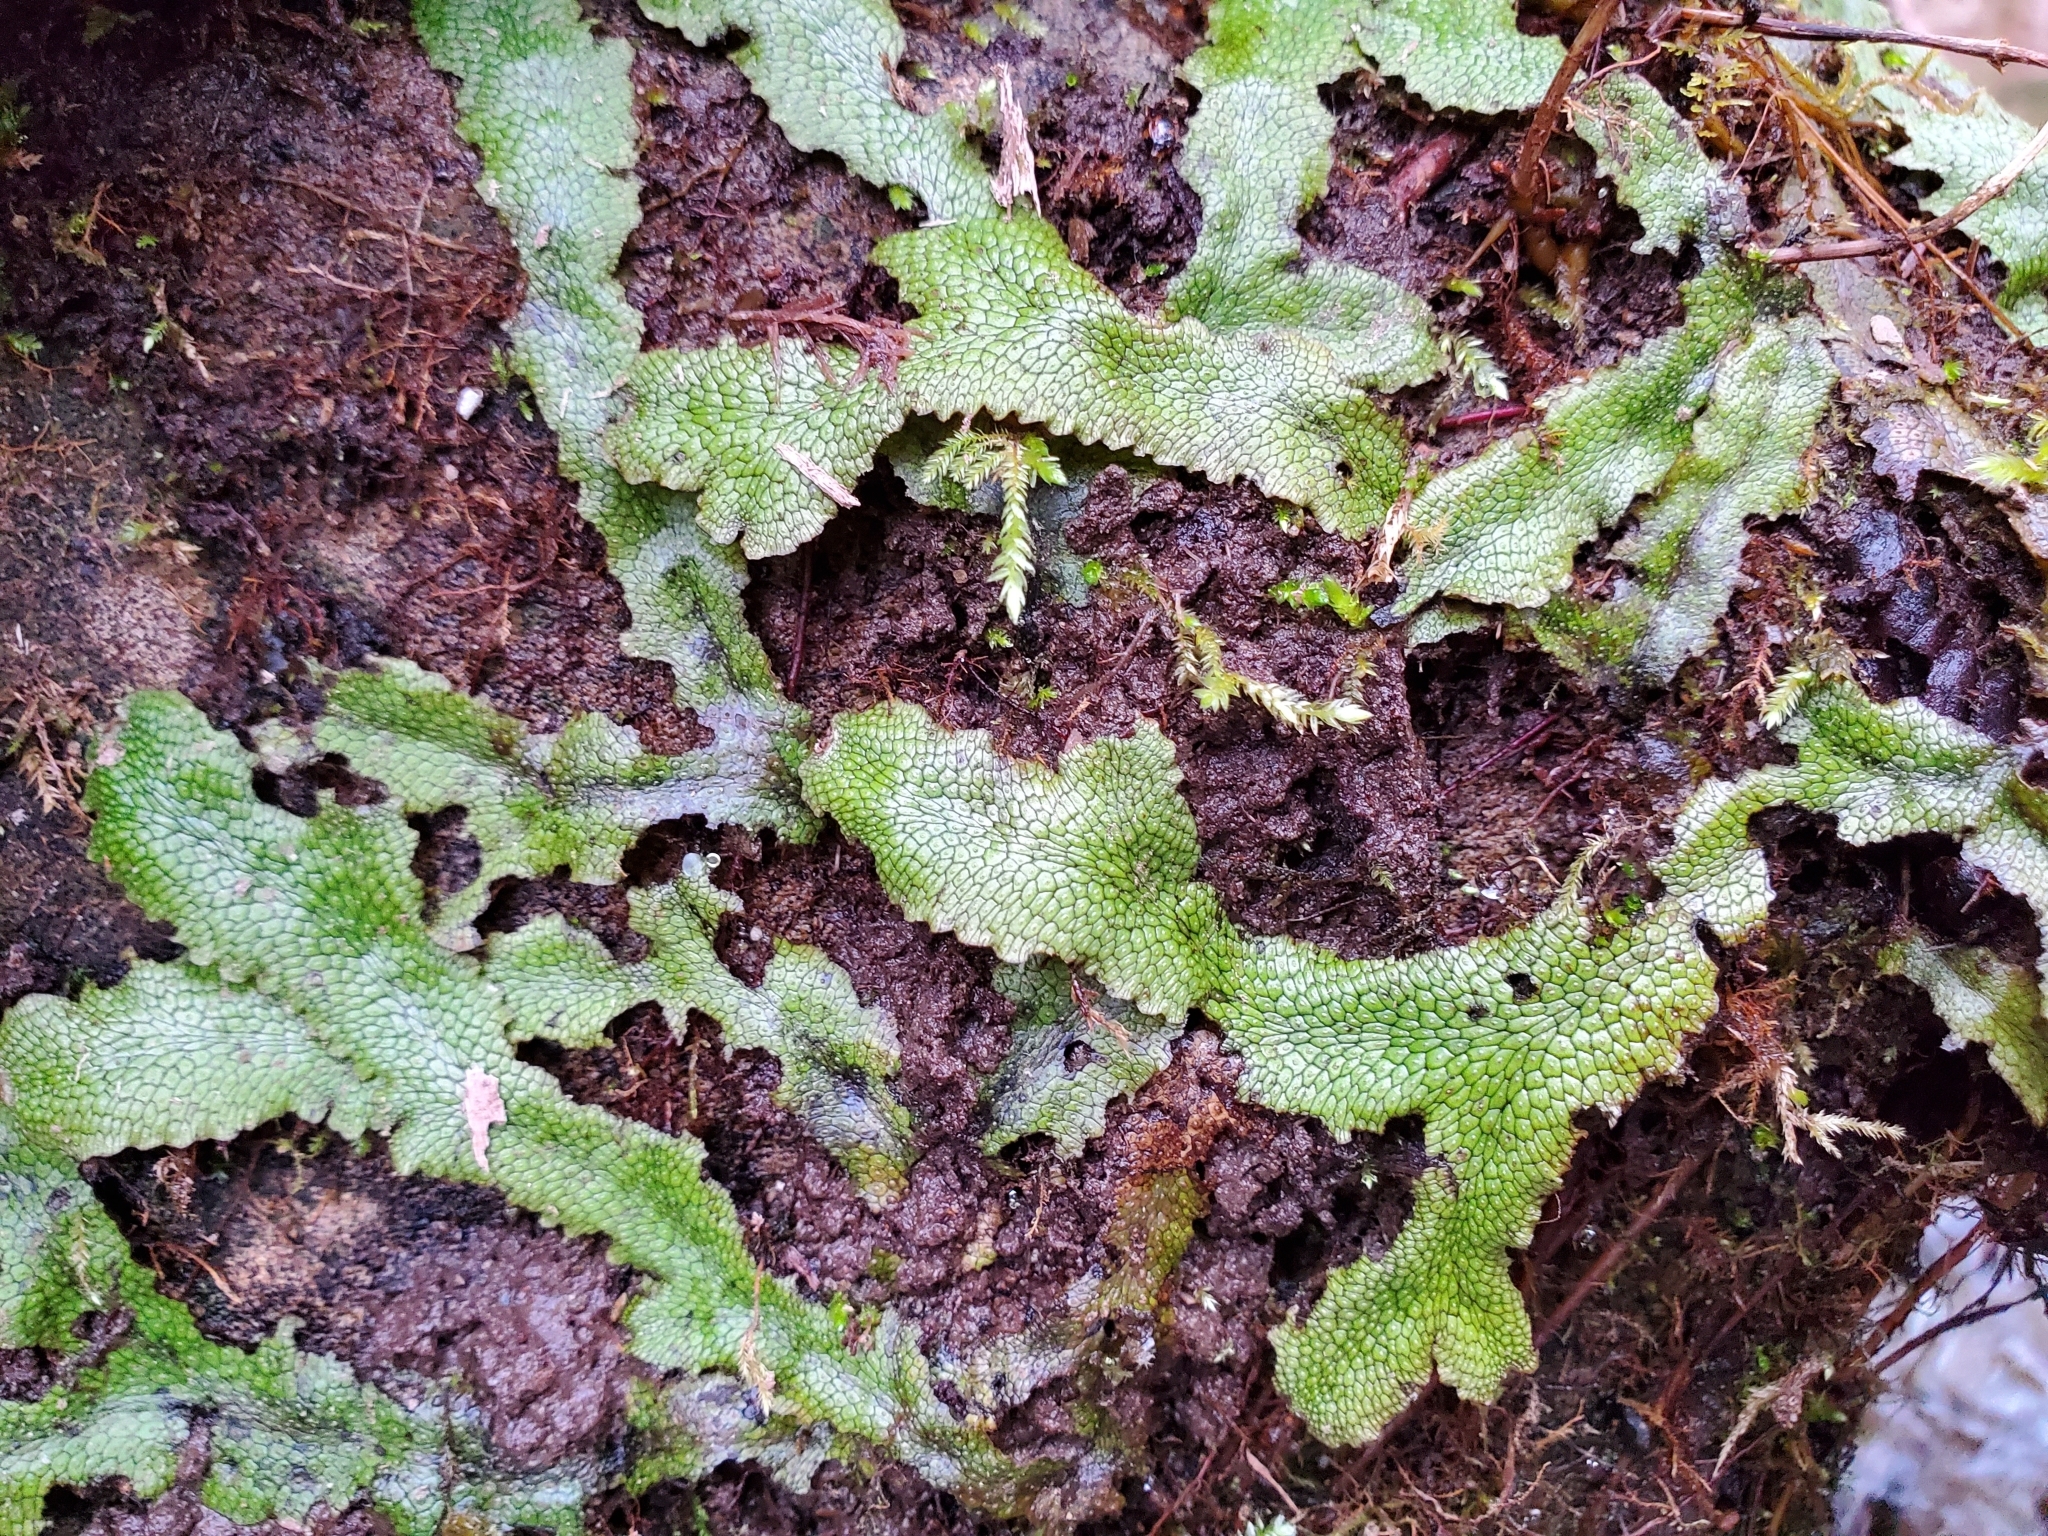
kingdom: Plantae
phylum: Marchantiophyta
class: Marchantiopsida
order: Marchantiales
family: Conocephalaceae
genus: Conocephalum
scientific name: Conocephalum salebrosum
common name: Cat-tongue liverwort
